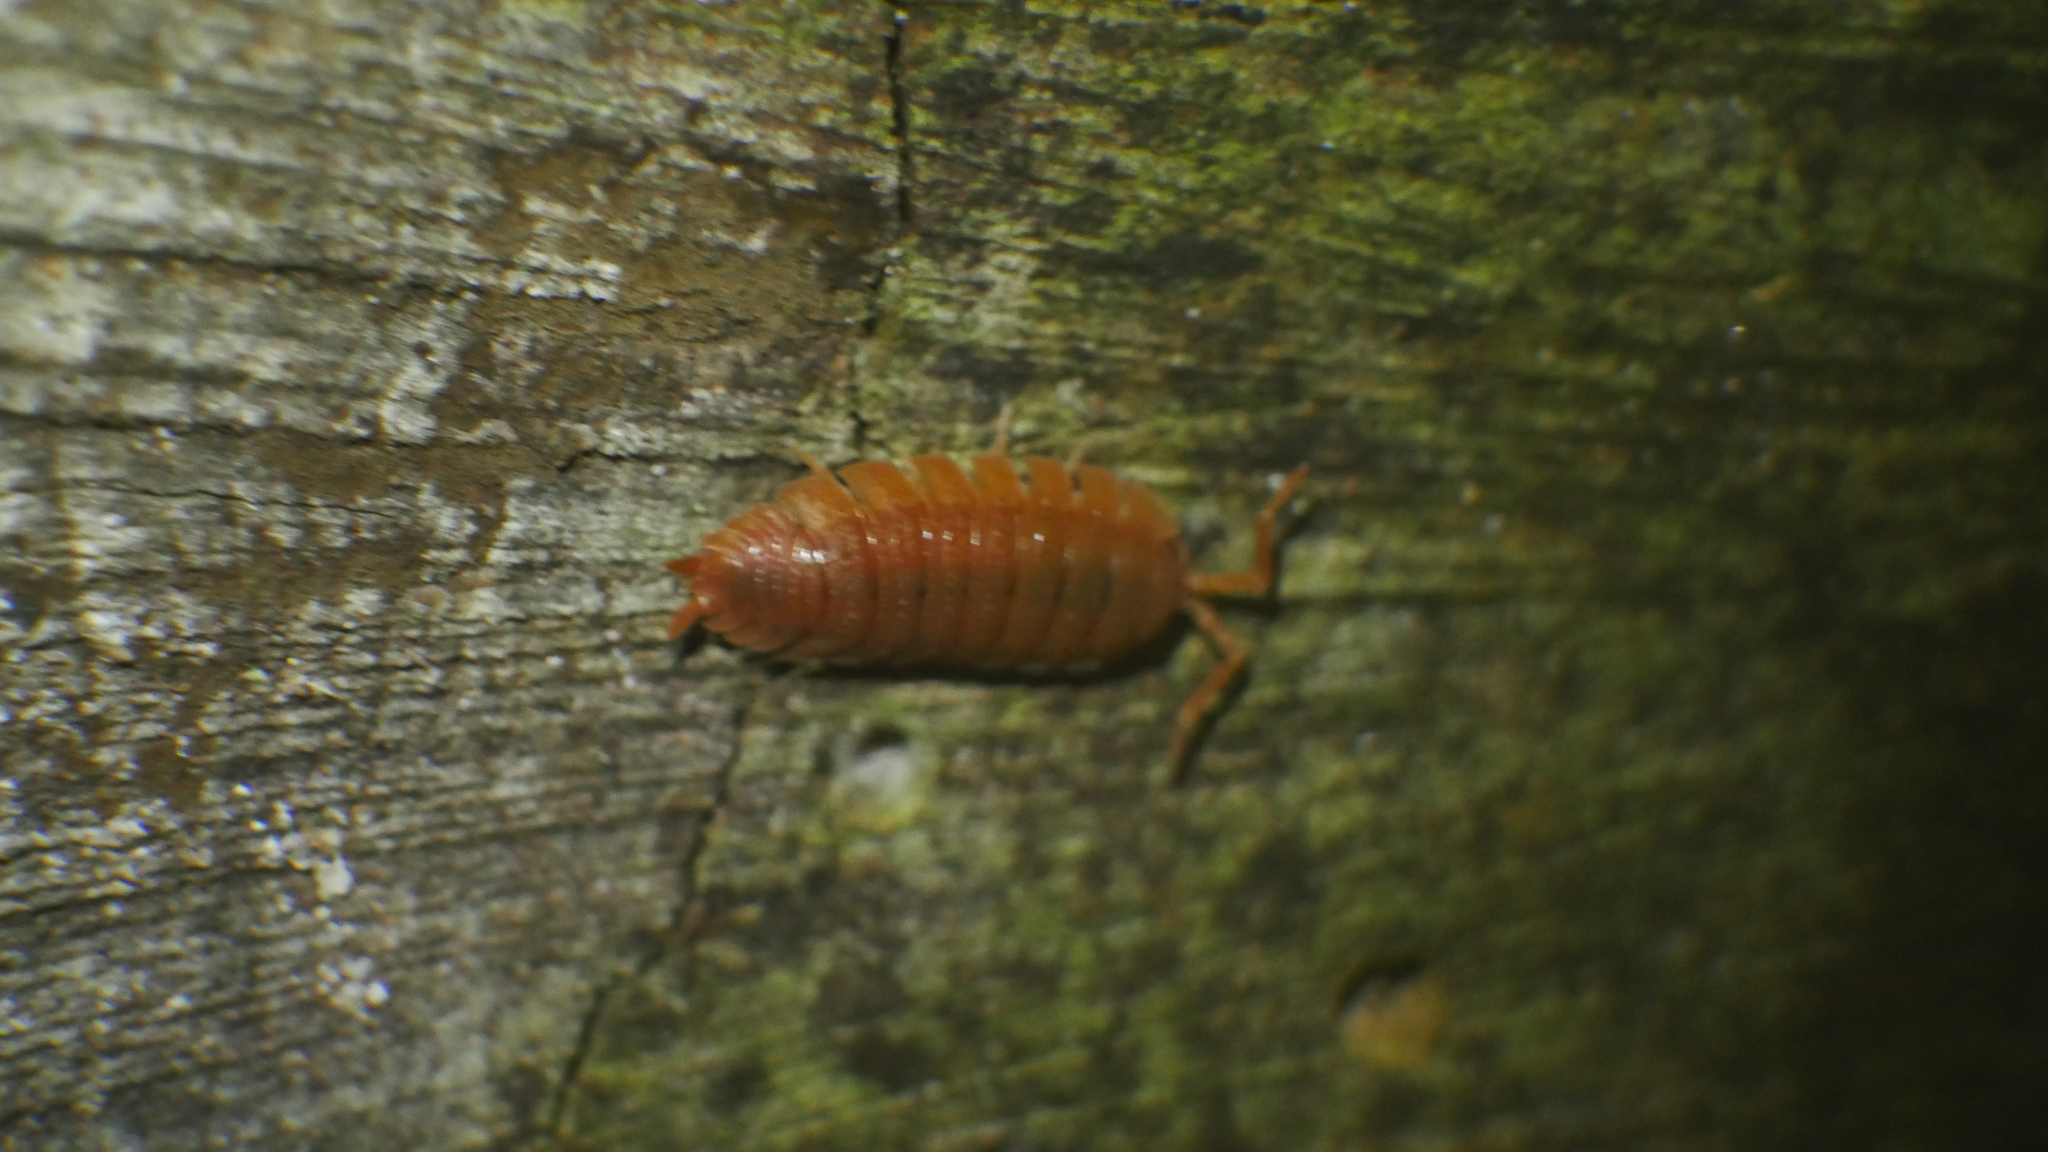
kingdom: Animalia
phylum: Arthropoda
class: Malacostraca
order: Isopoda
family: Porcellionidae
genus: Porcellio
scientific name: Porcellio scaber
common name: Common rough woodlouse
